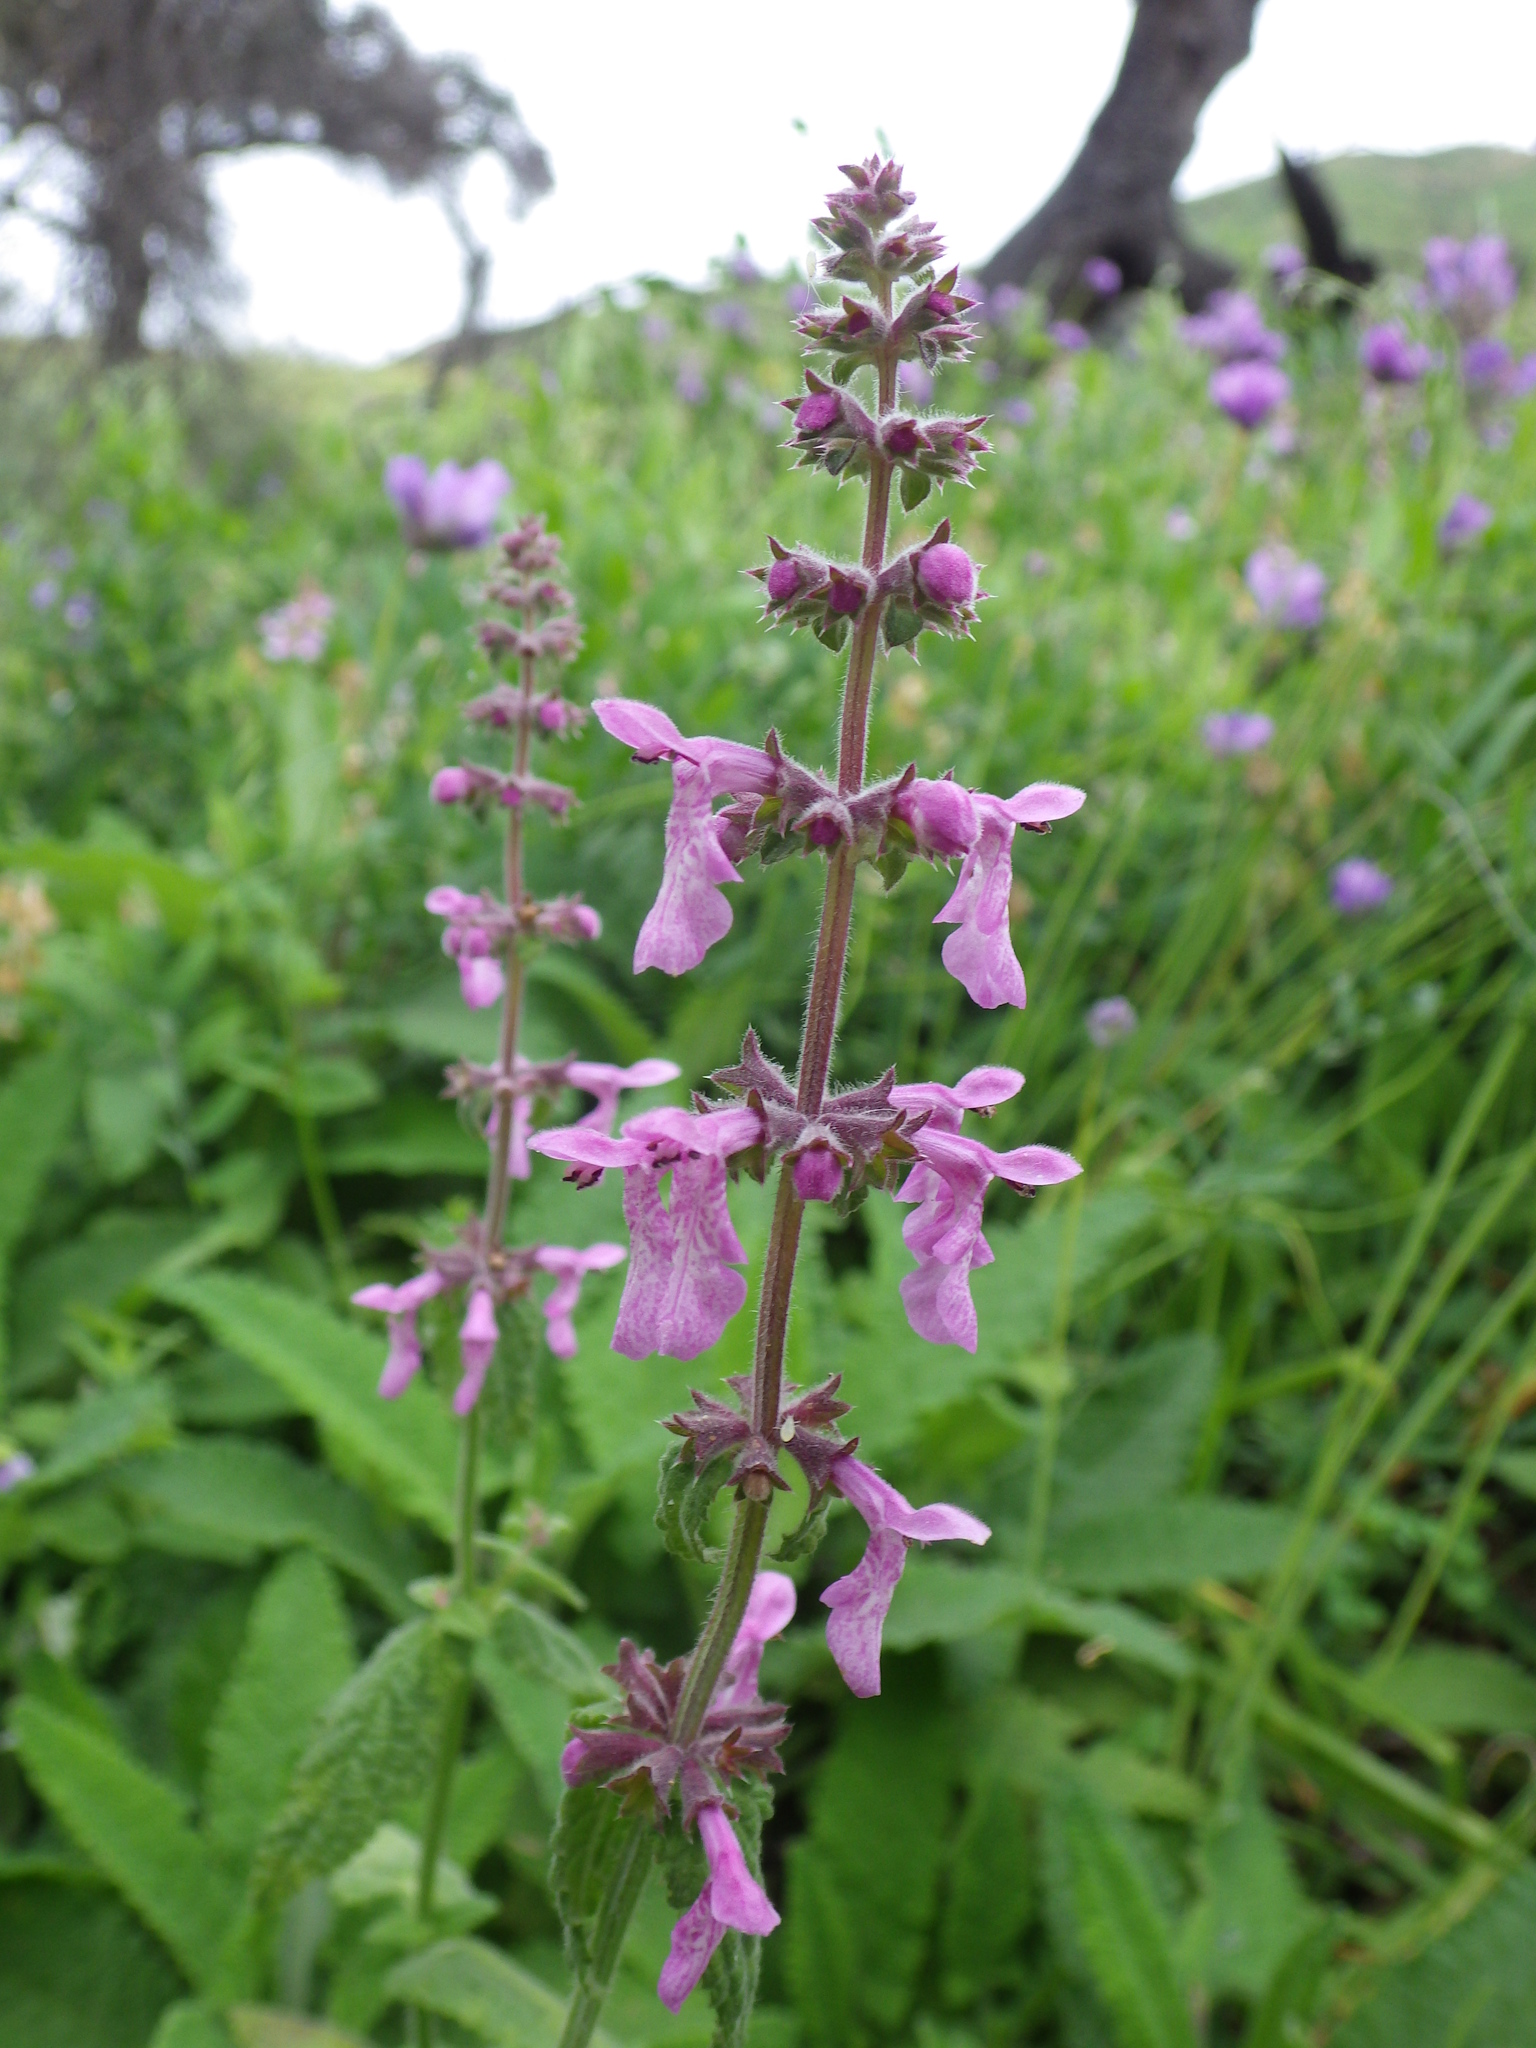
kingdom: Plantae
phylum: Tracheophyta
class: Magnoliopsida
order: Lamiales
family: Lamiaceae
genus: Stachys
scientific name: Stachys bullata
